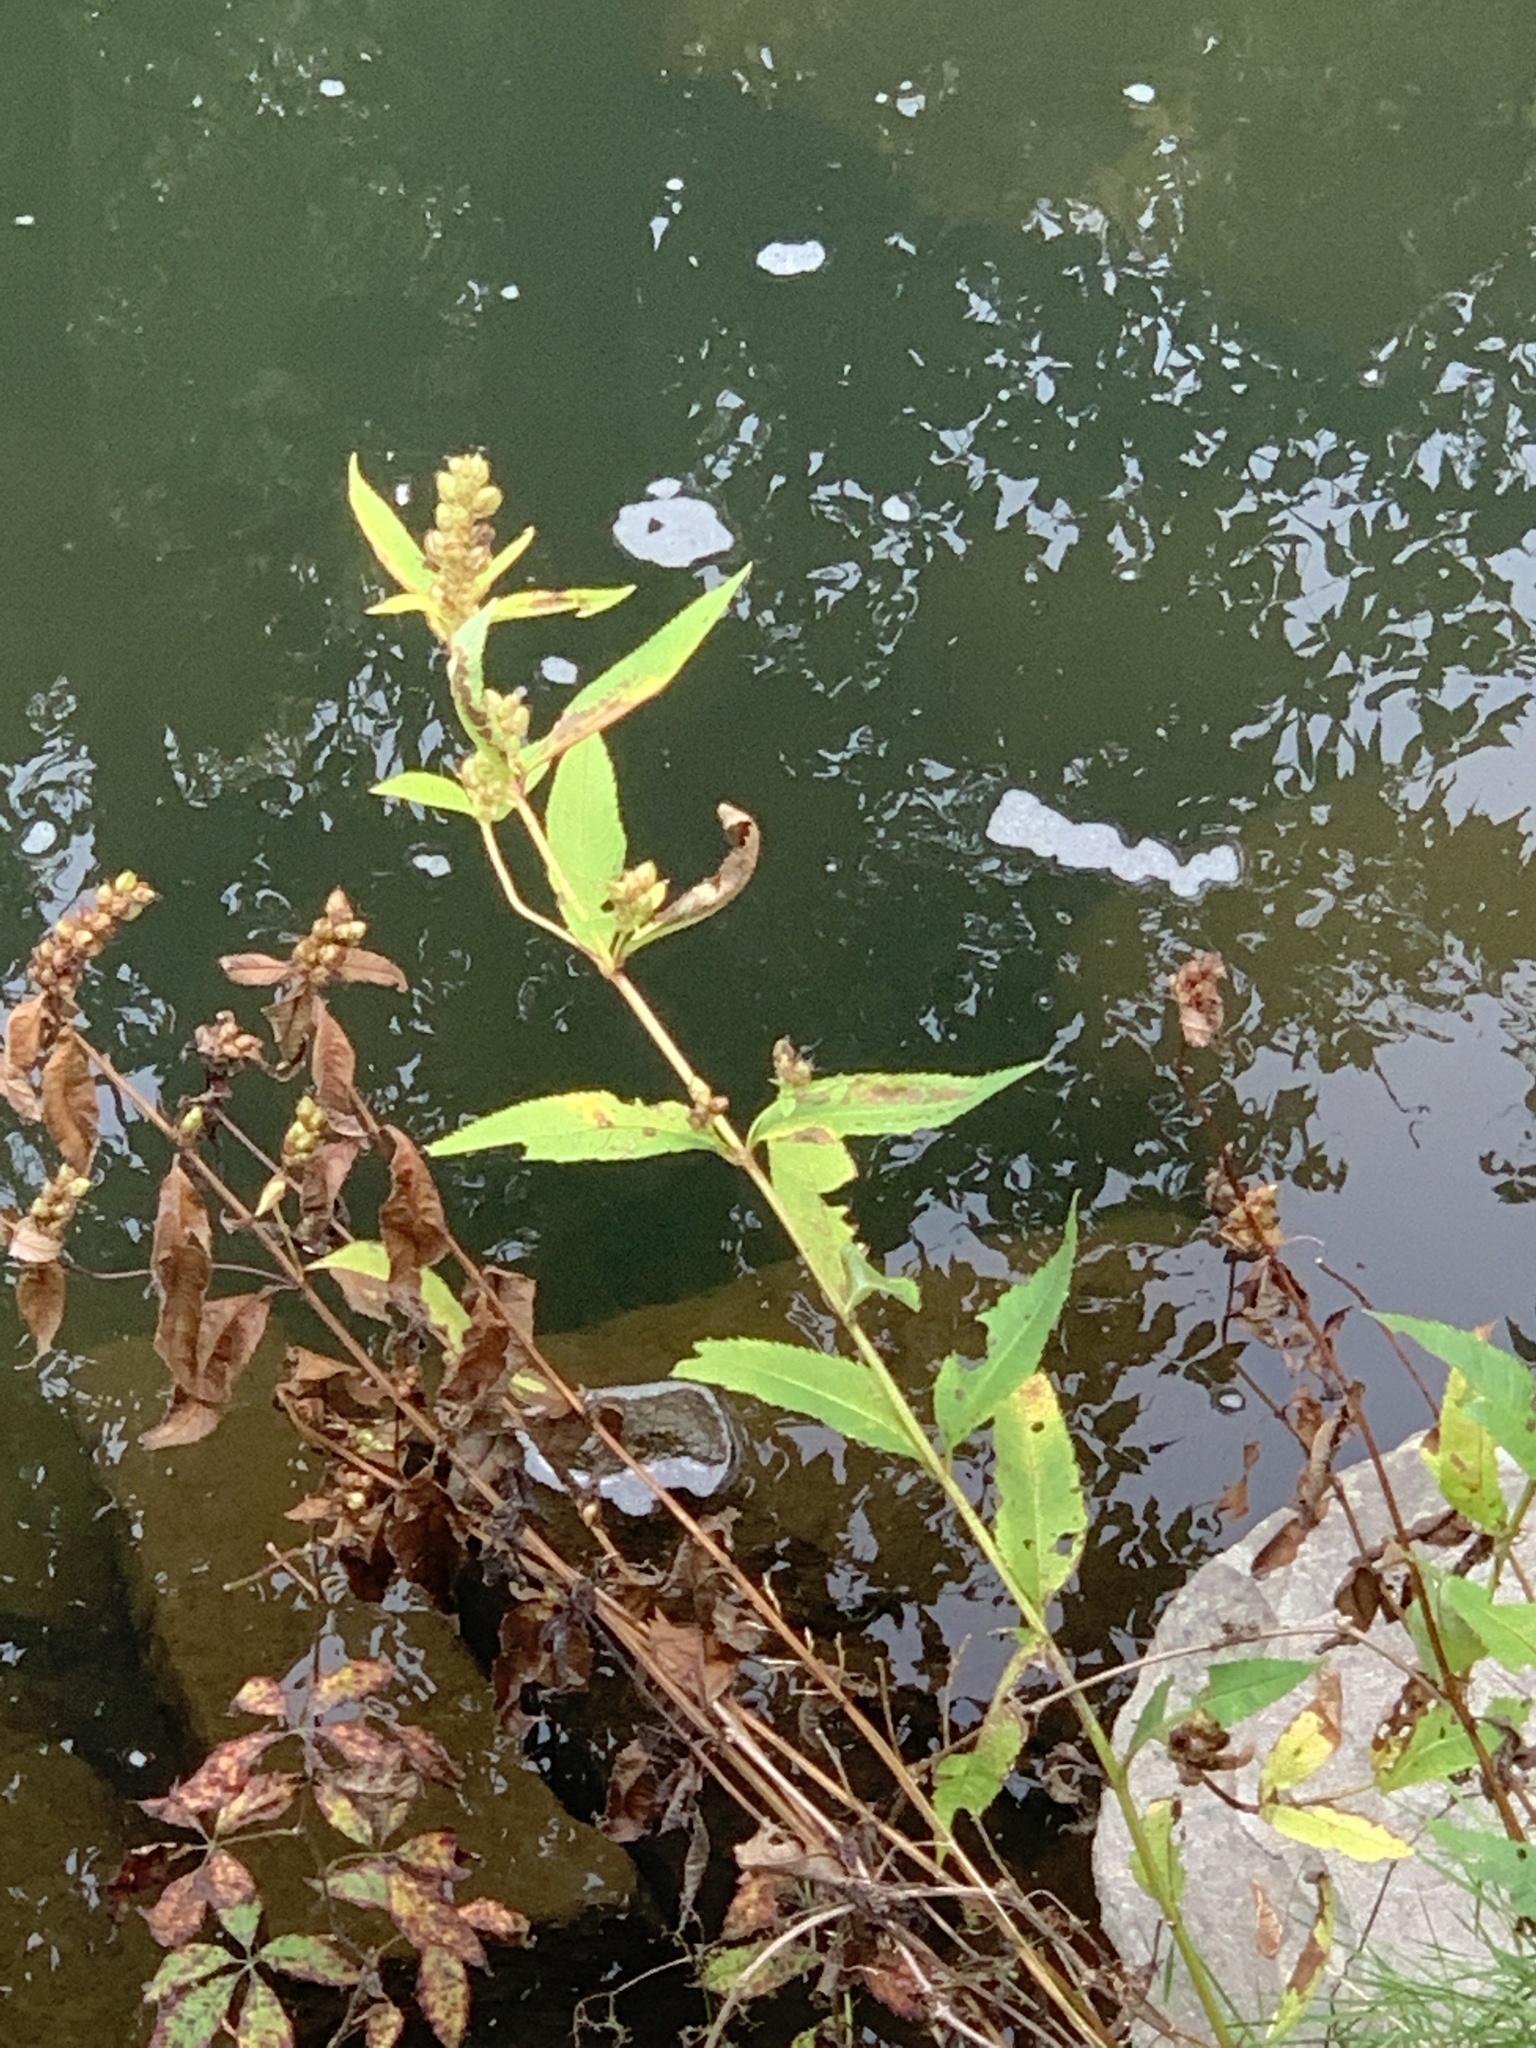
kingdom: Plantae
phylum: Tracheophyta
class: Magnoliopsida
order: Lamiales
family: Plantaginaceae
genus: Chelone
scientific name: Chelone glabra
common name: Snakehead
